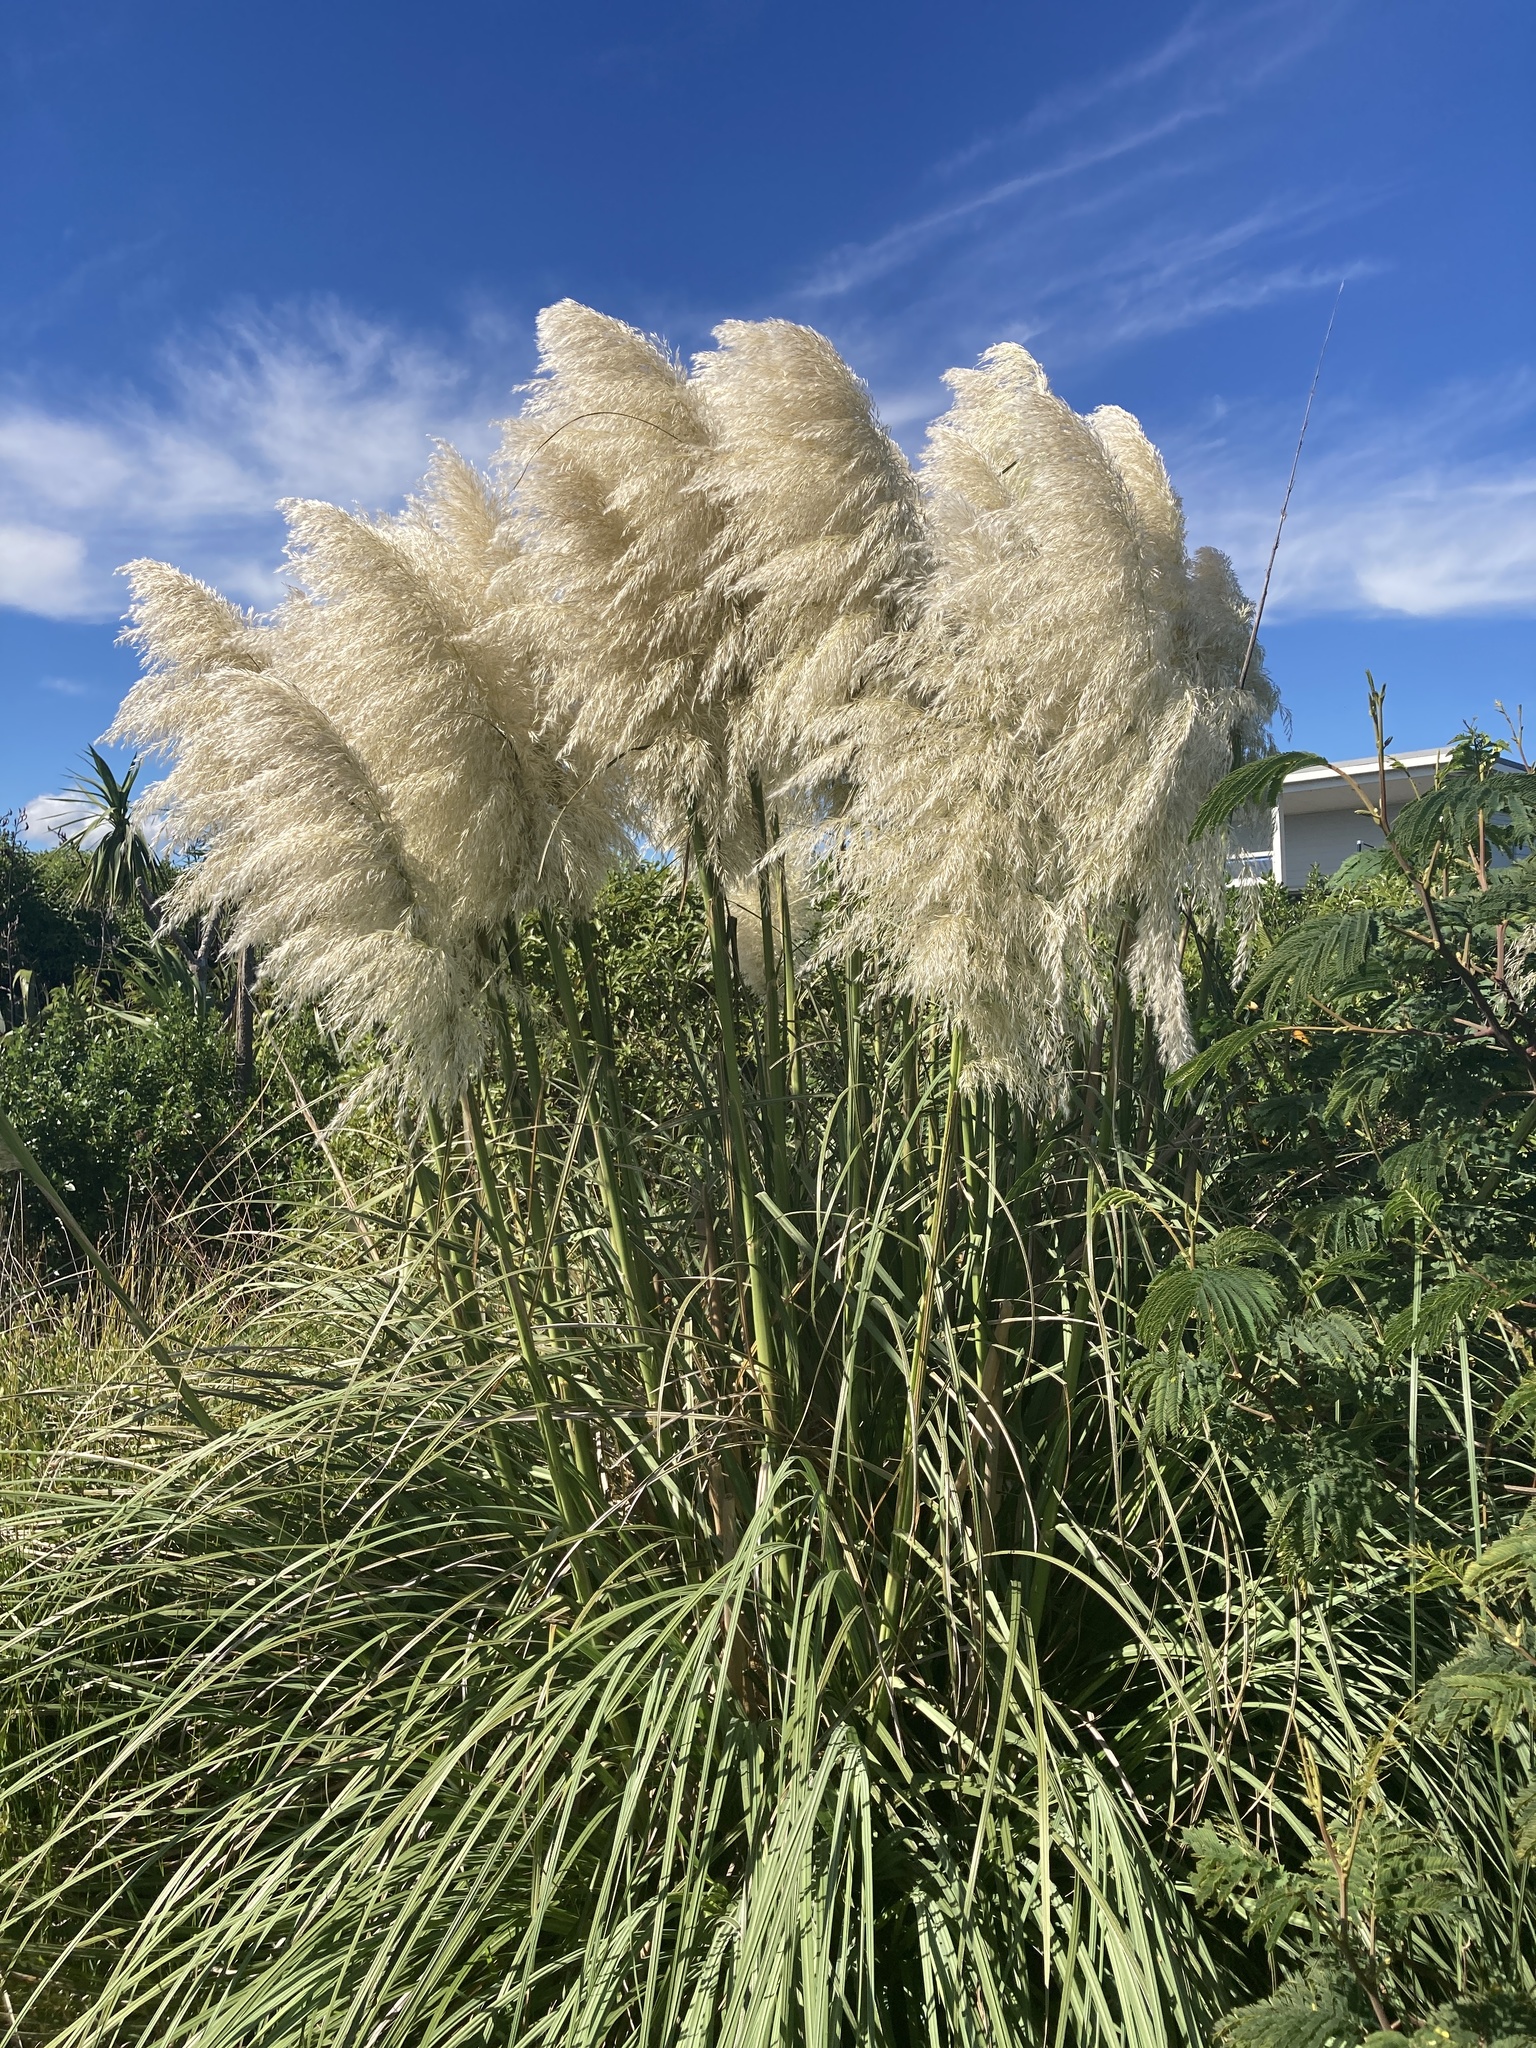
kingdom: Plantae
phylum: Tracheophyta
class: Liliopsida
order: Poales
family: Poaceae
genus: Cortaderia
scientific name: Cortaderia selloana
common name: Uruguayan pampas grass
